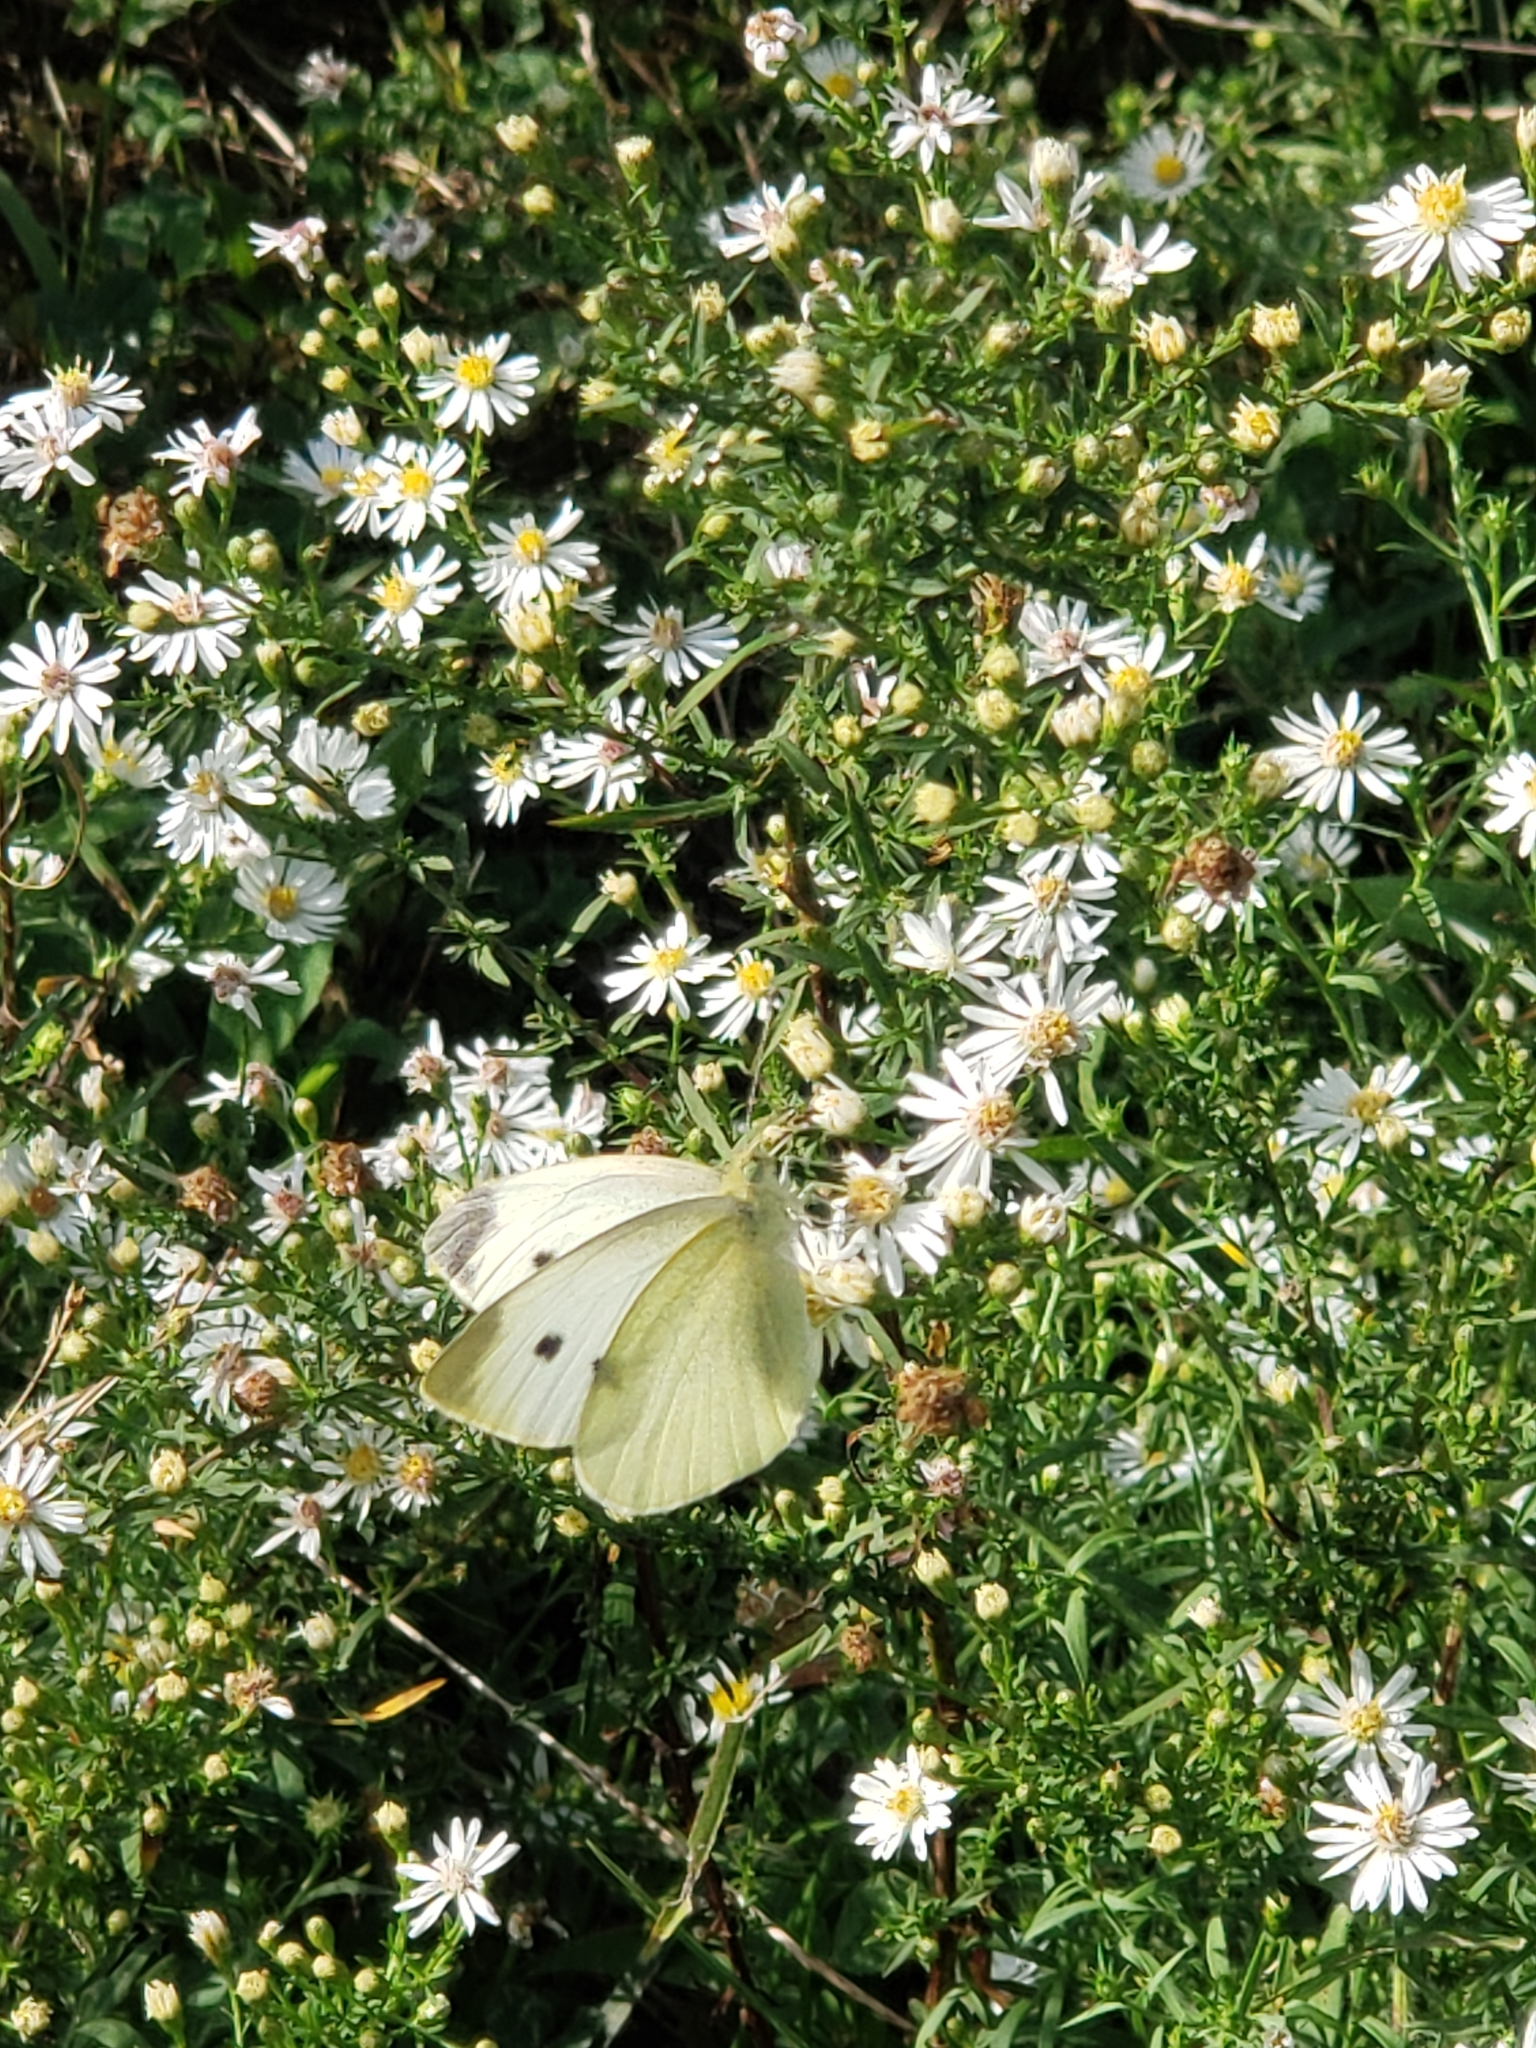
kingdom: Animalia
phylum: Arthropoda
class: Insecta
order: Lepidoptera
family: Pieridae
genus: Pieris
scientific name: Pieris rapae
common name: Small white
